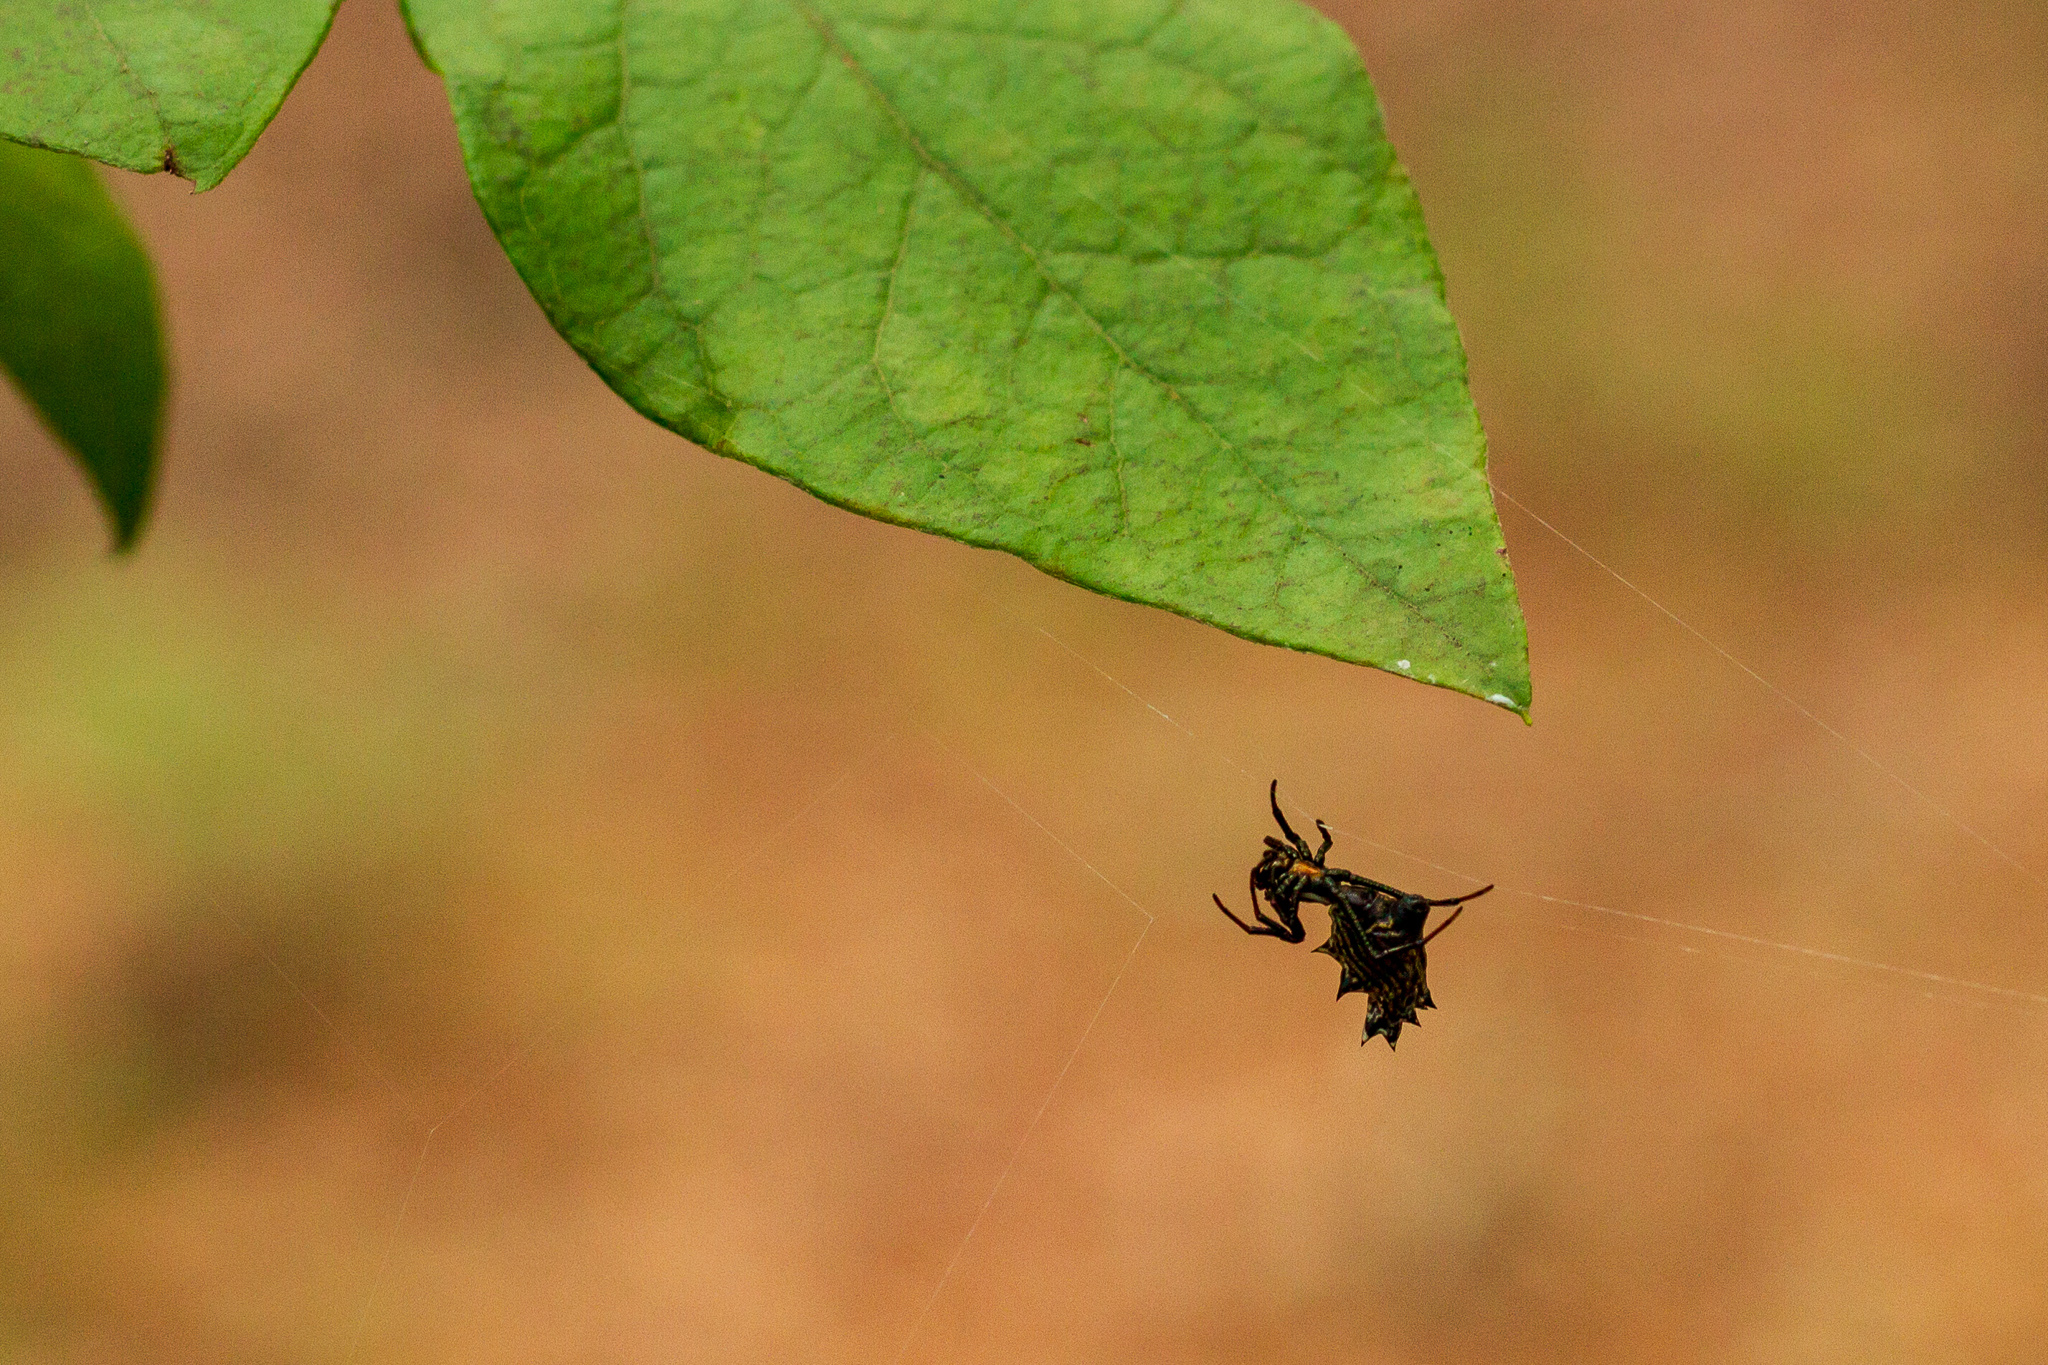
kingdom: Animalia
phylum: Arthropoda
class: Arachnida
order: Araneae
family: Araneidae
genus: Micrathena
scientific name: Micrathena gracilis
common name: Orb weavers
